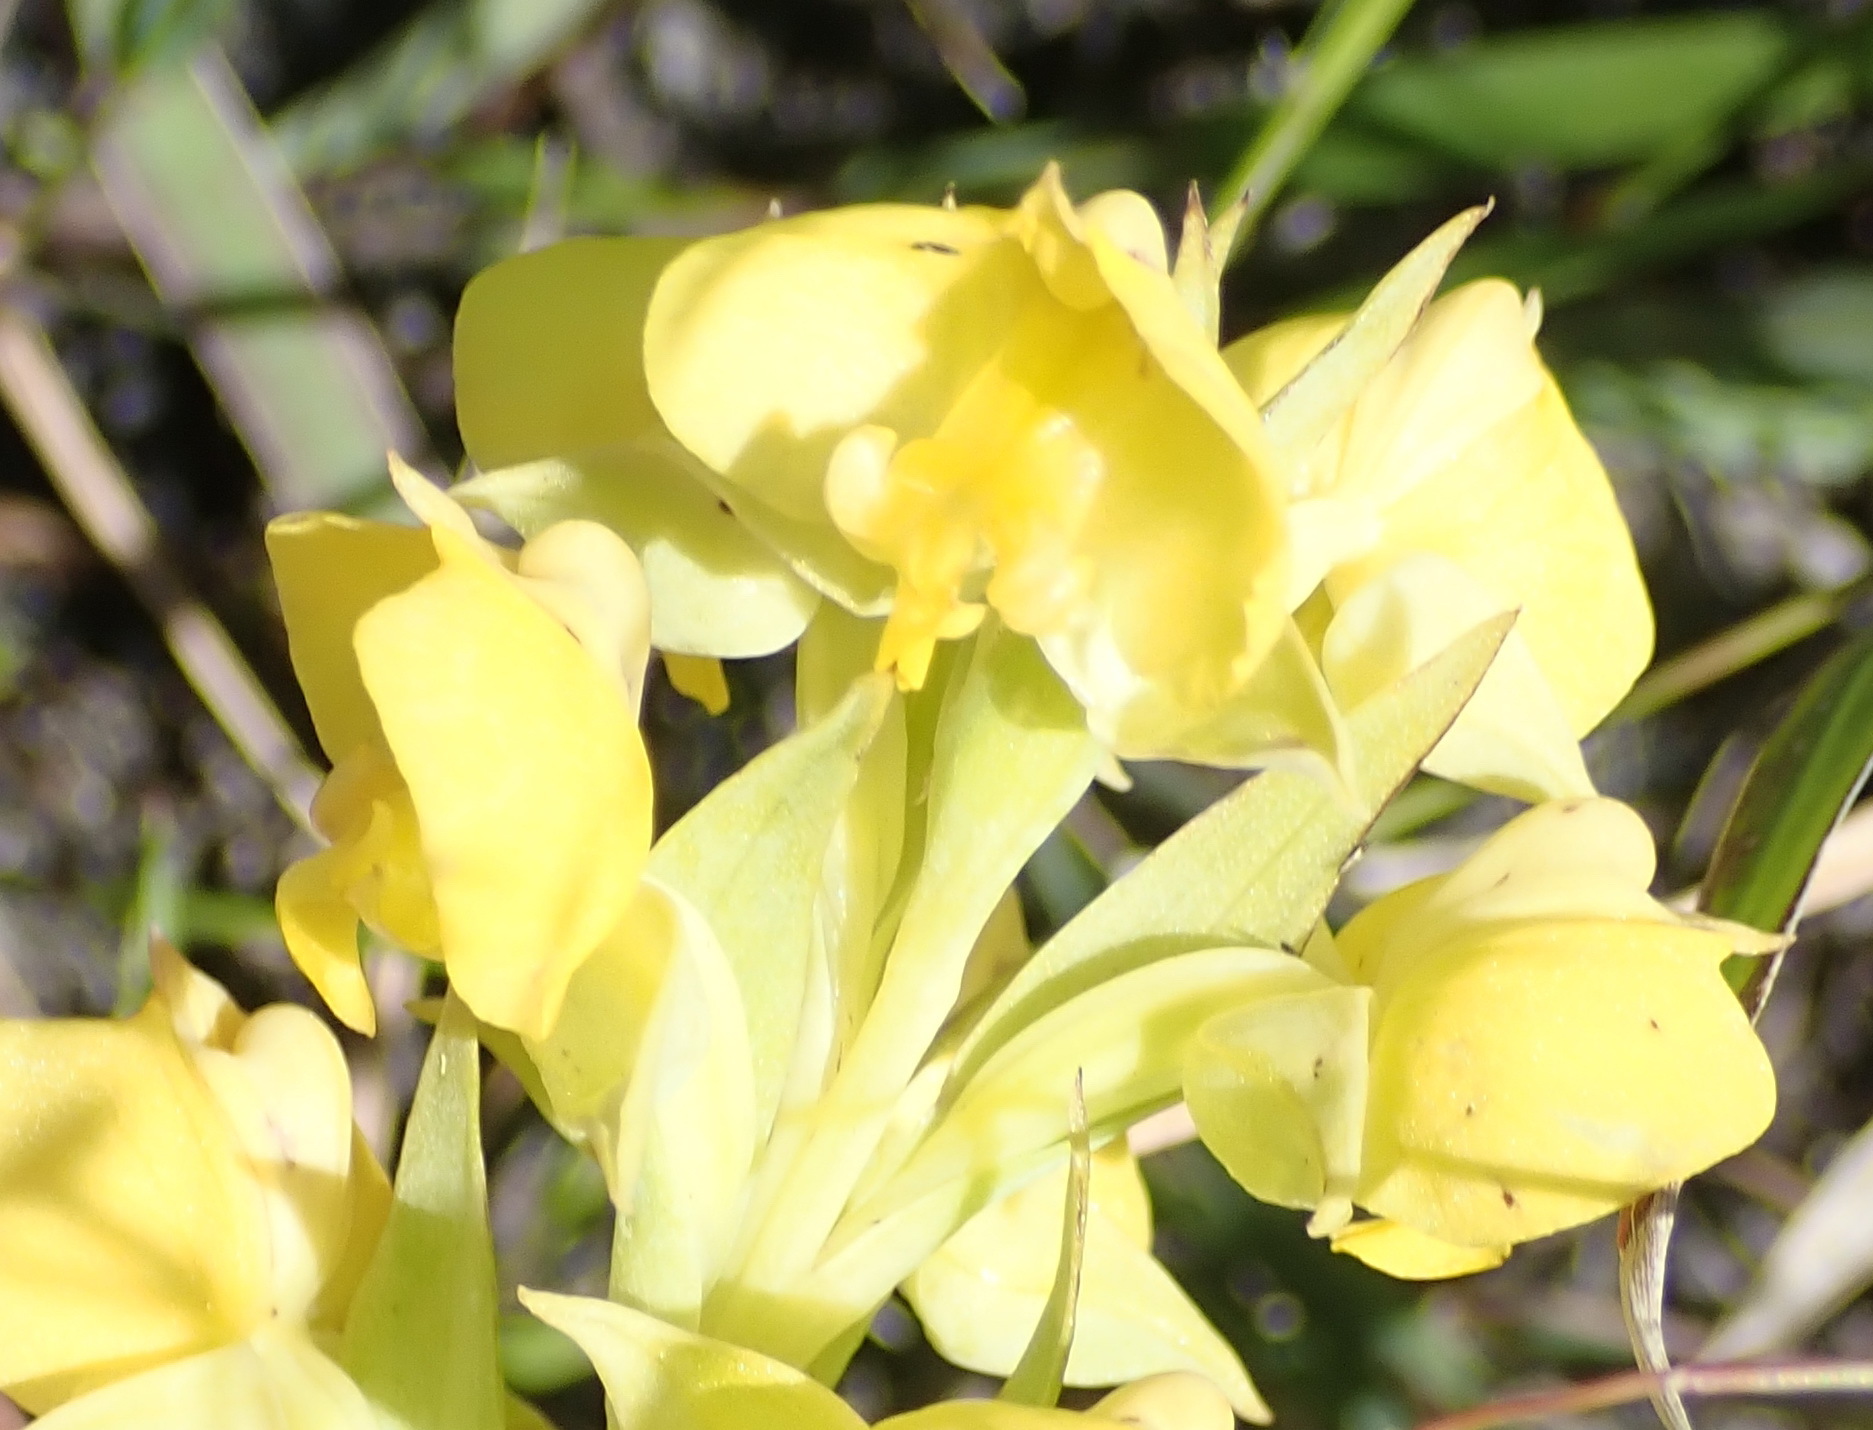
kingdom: Plantae
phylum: Tracheophyta
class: Liliopsida
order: Asparagales
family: Orchidaceae
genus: Pterygodium
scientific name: Pterygodium acutifolium
